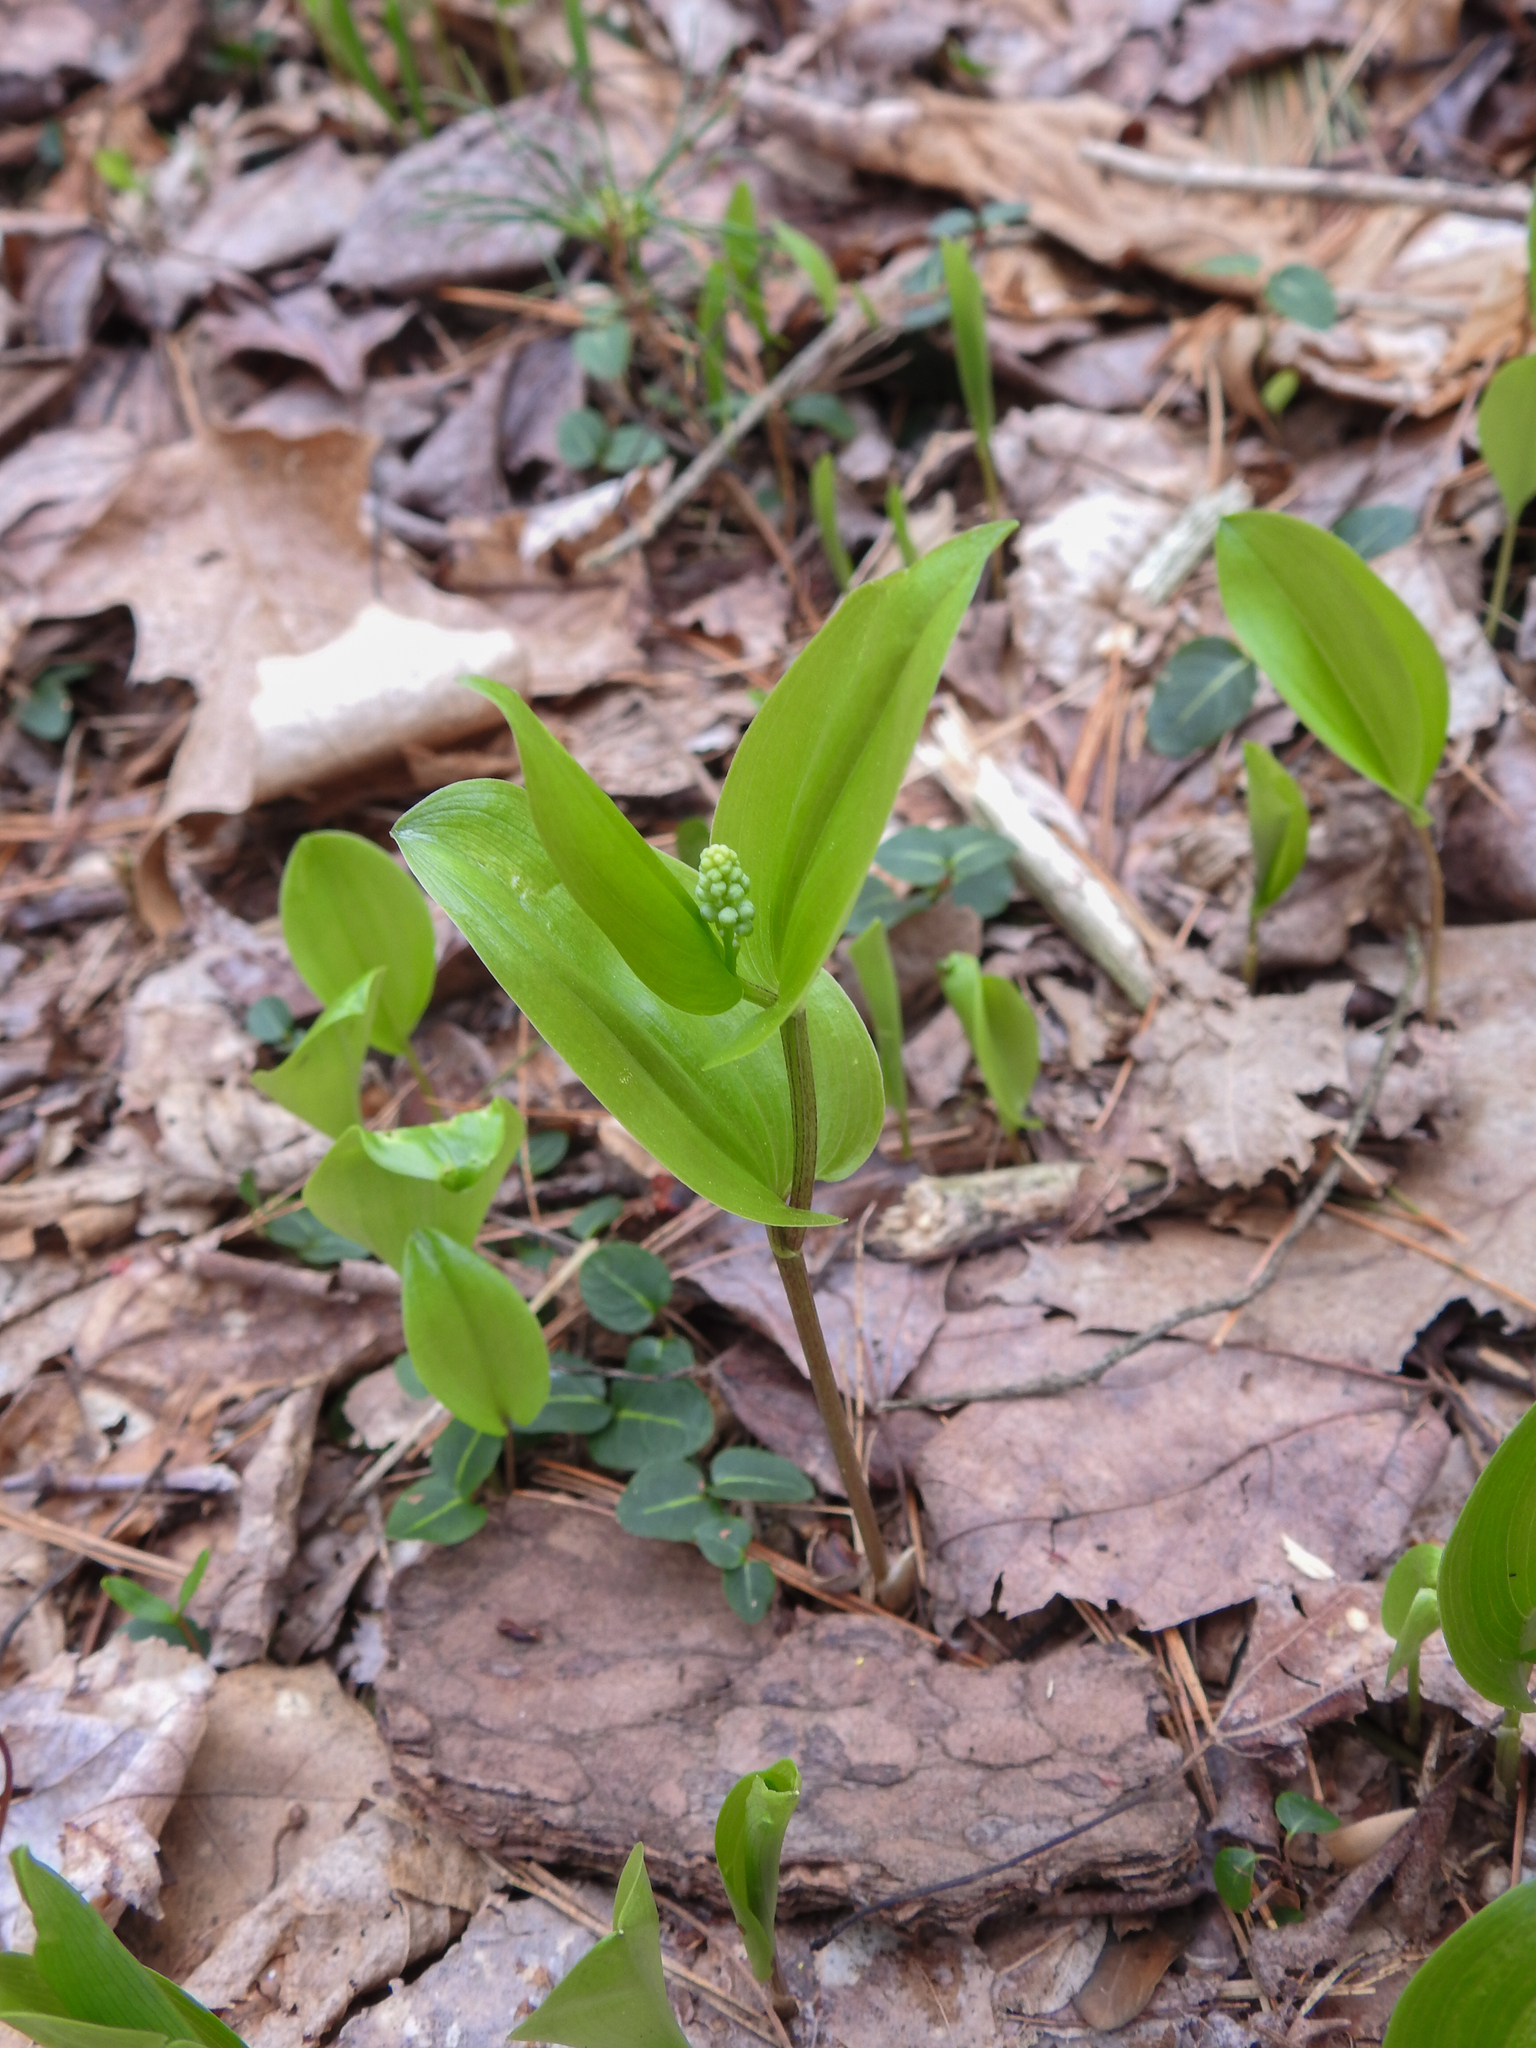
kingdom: Plantae
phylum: Tracheophyta
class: Liliopsida
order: Asparagales
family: Asparagaceae
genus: Maianthemum
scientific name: Maianthemum canadense
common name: False lily-of-the-valley
